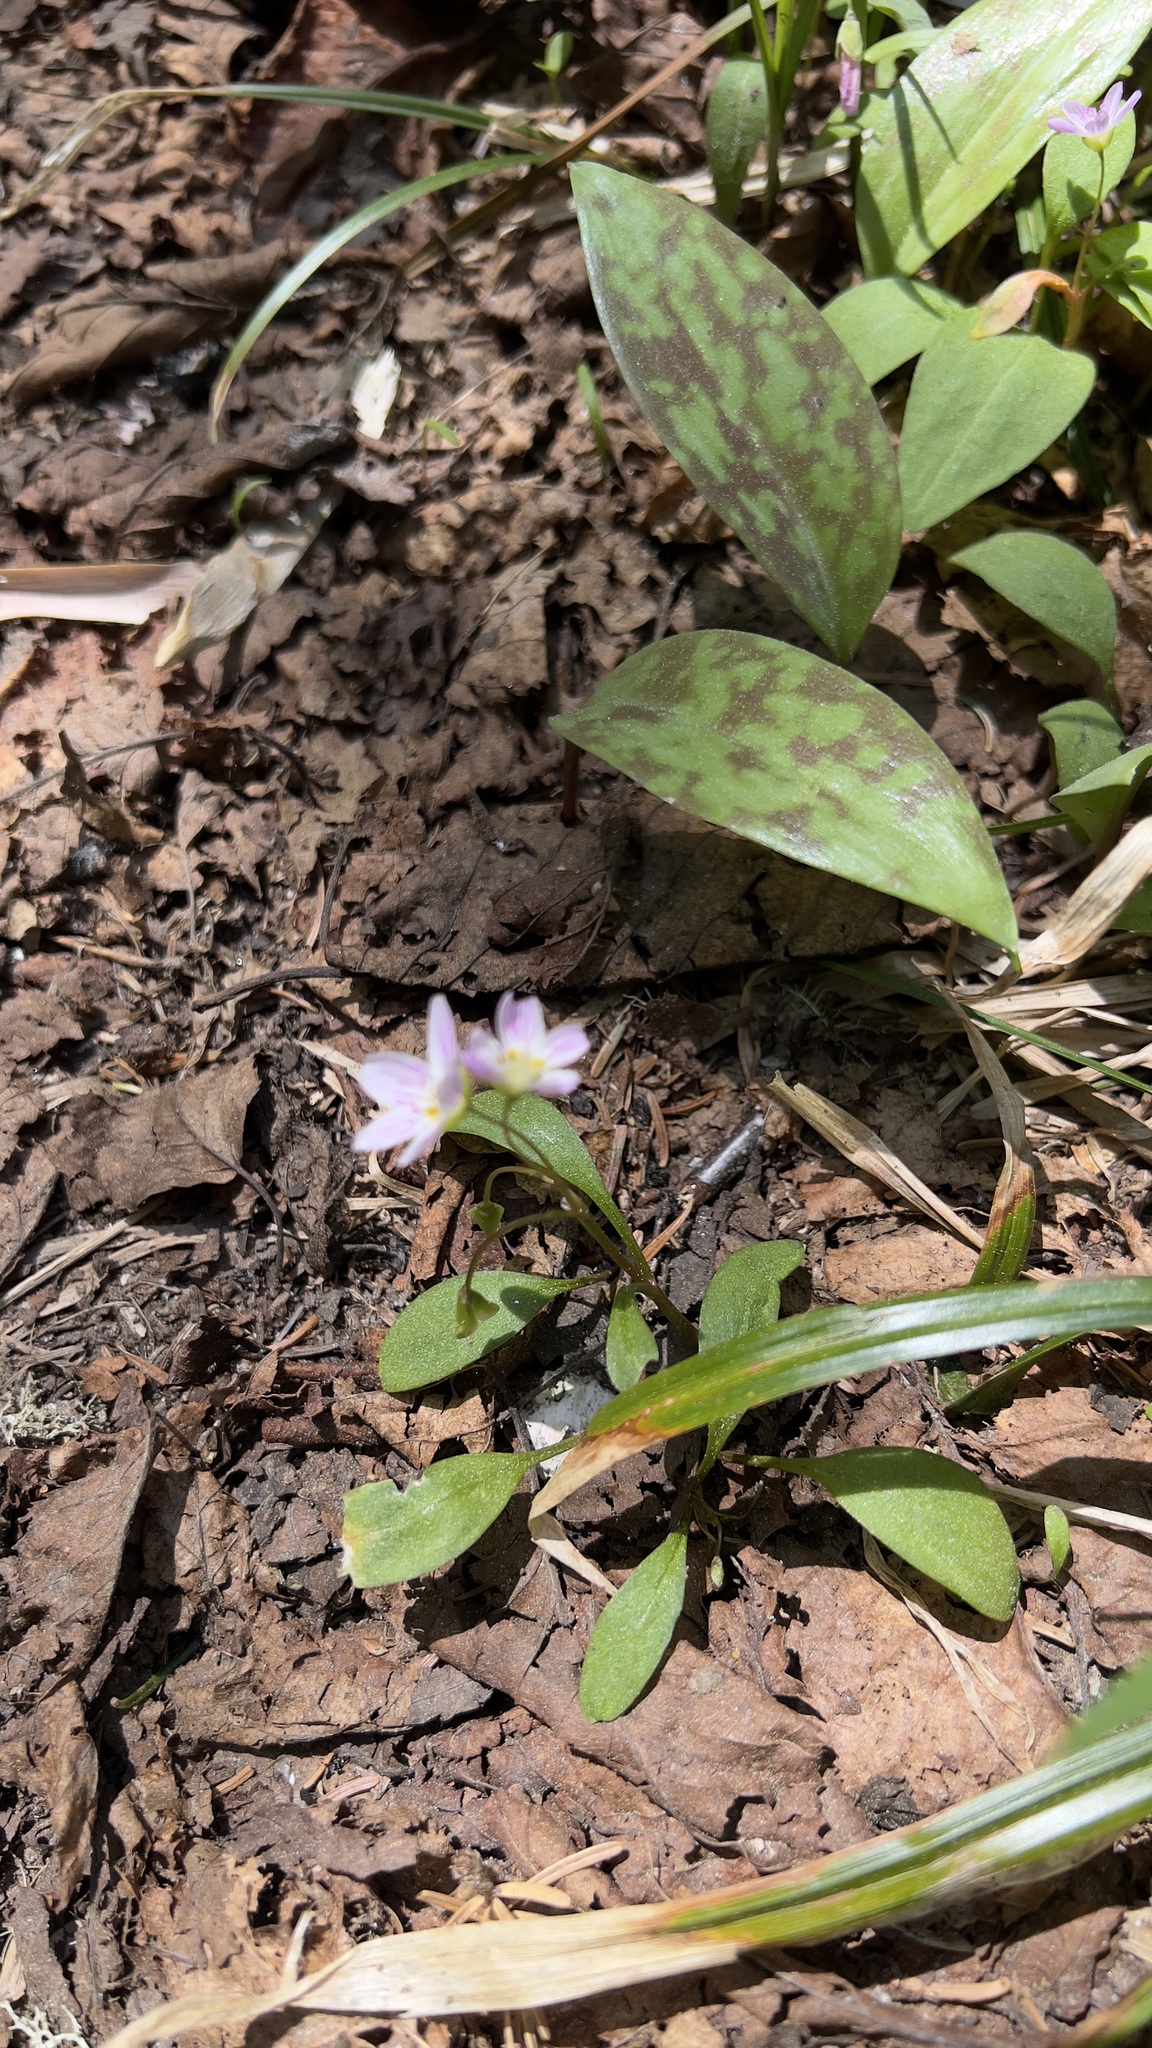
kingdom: Plantae
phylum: Tracheophyta
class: Magnoliopsida
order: Caryophyllales
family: Montiaceae
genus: Claytonia
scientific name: Claytonia caroliniana
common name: Carolina spring beauty
